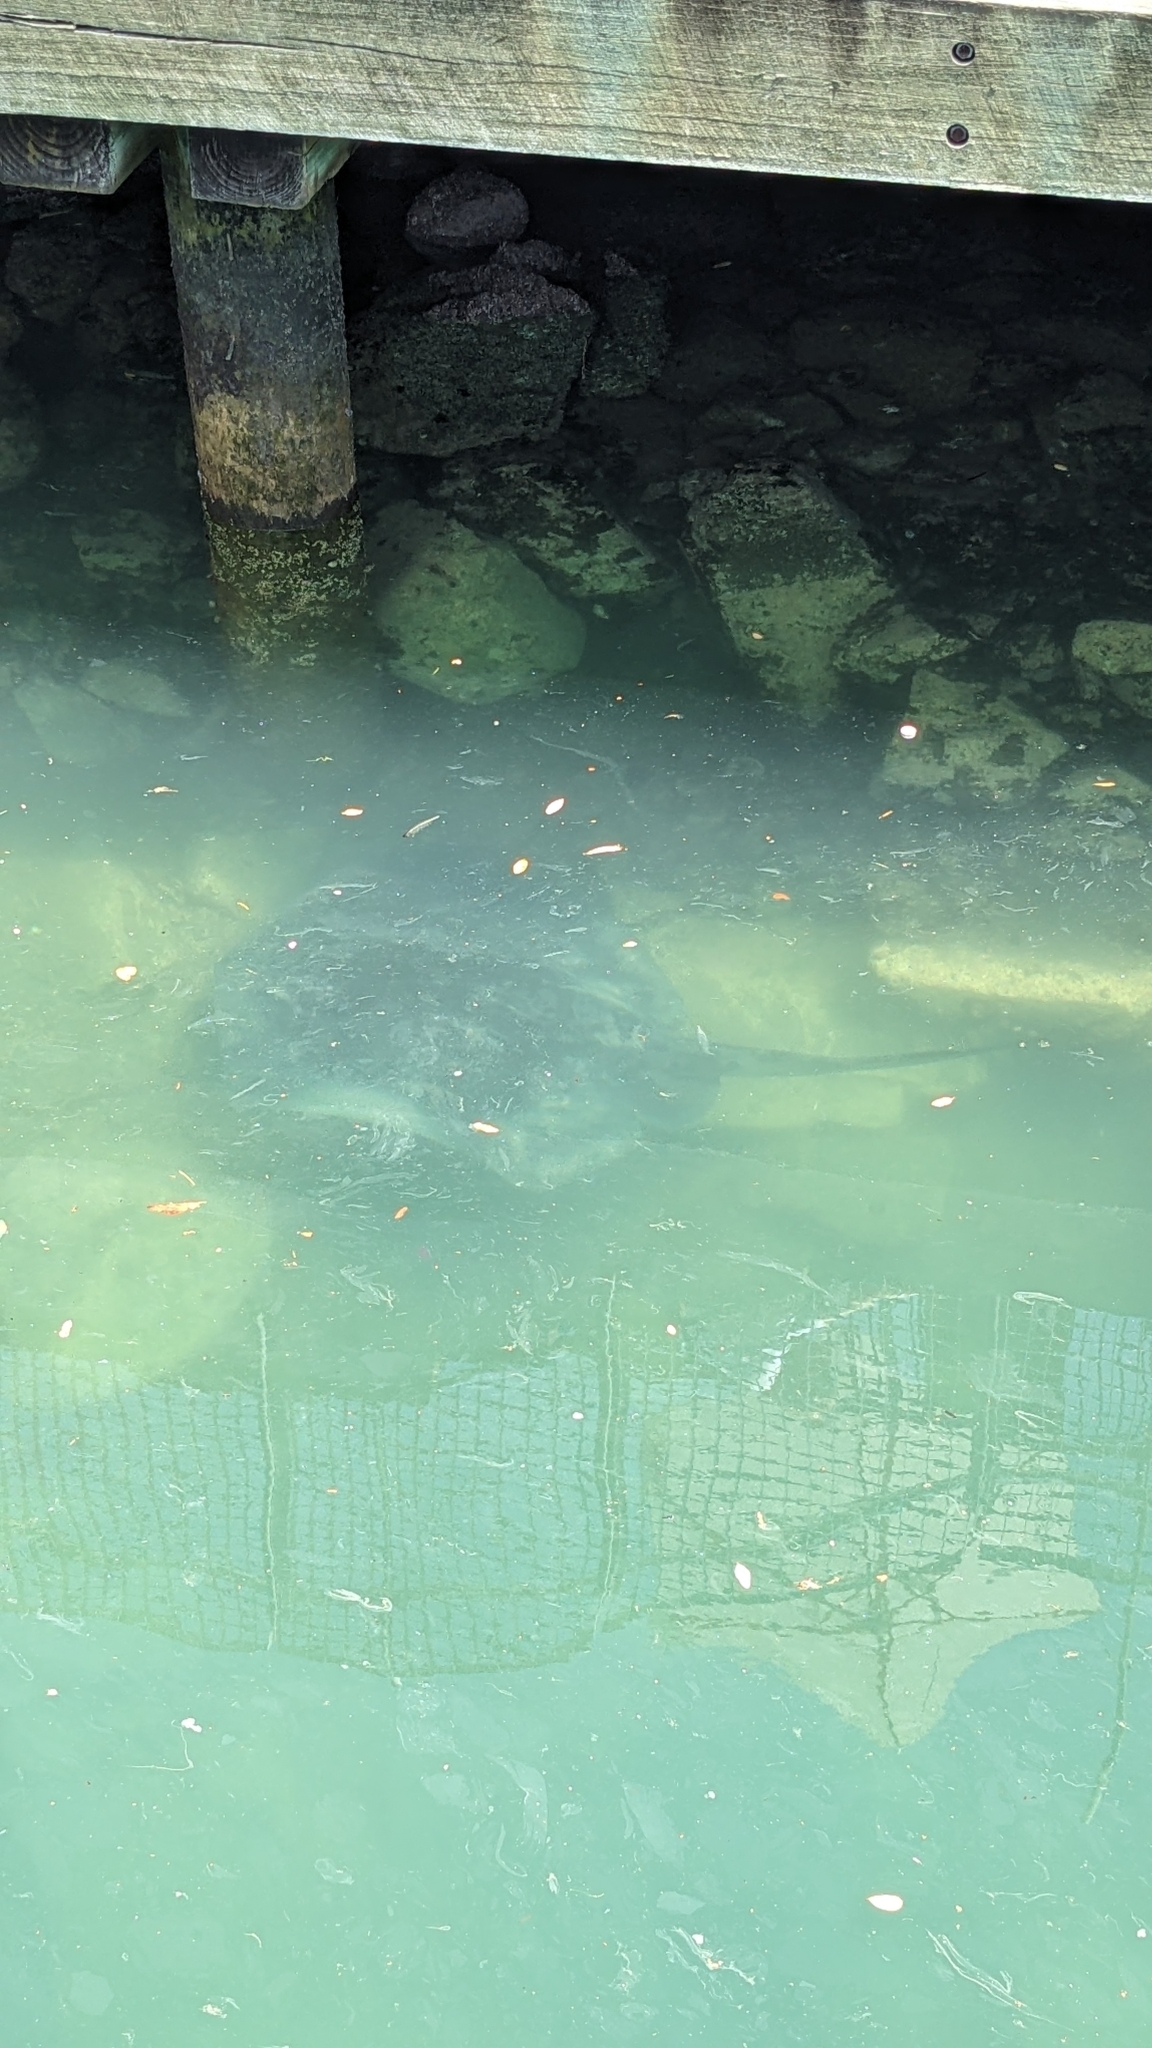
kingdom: Animalia
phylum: Chordata
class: Elasmobranchii
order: Myliobatiformes
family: Dasyatidae
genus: Bathytoshia
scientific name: Bathytoshia brevicaudata
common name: Short-tail stingray
